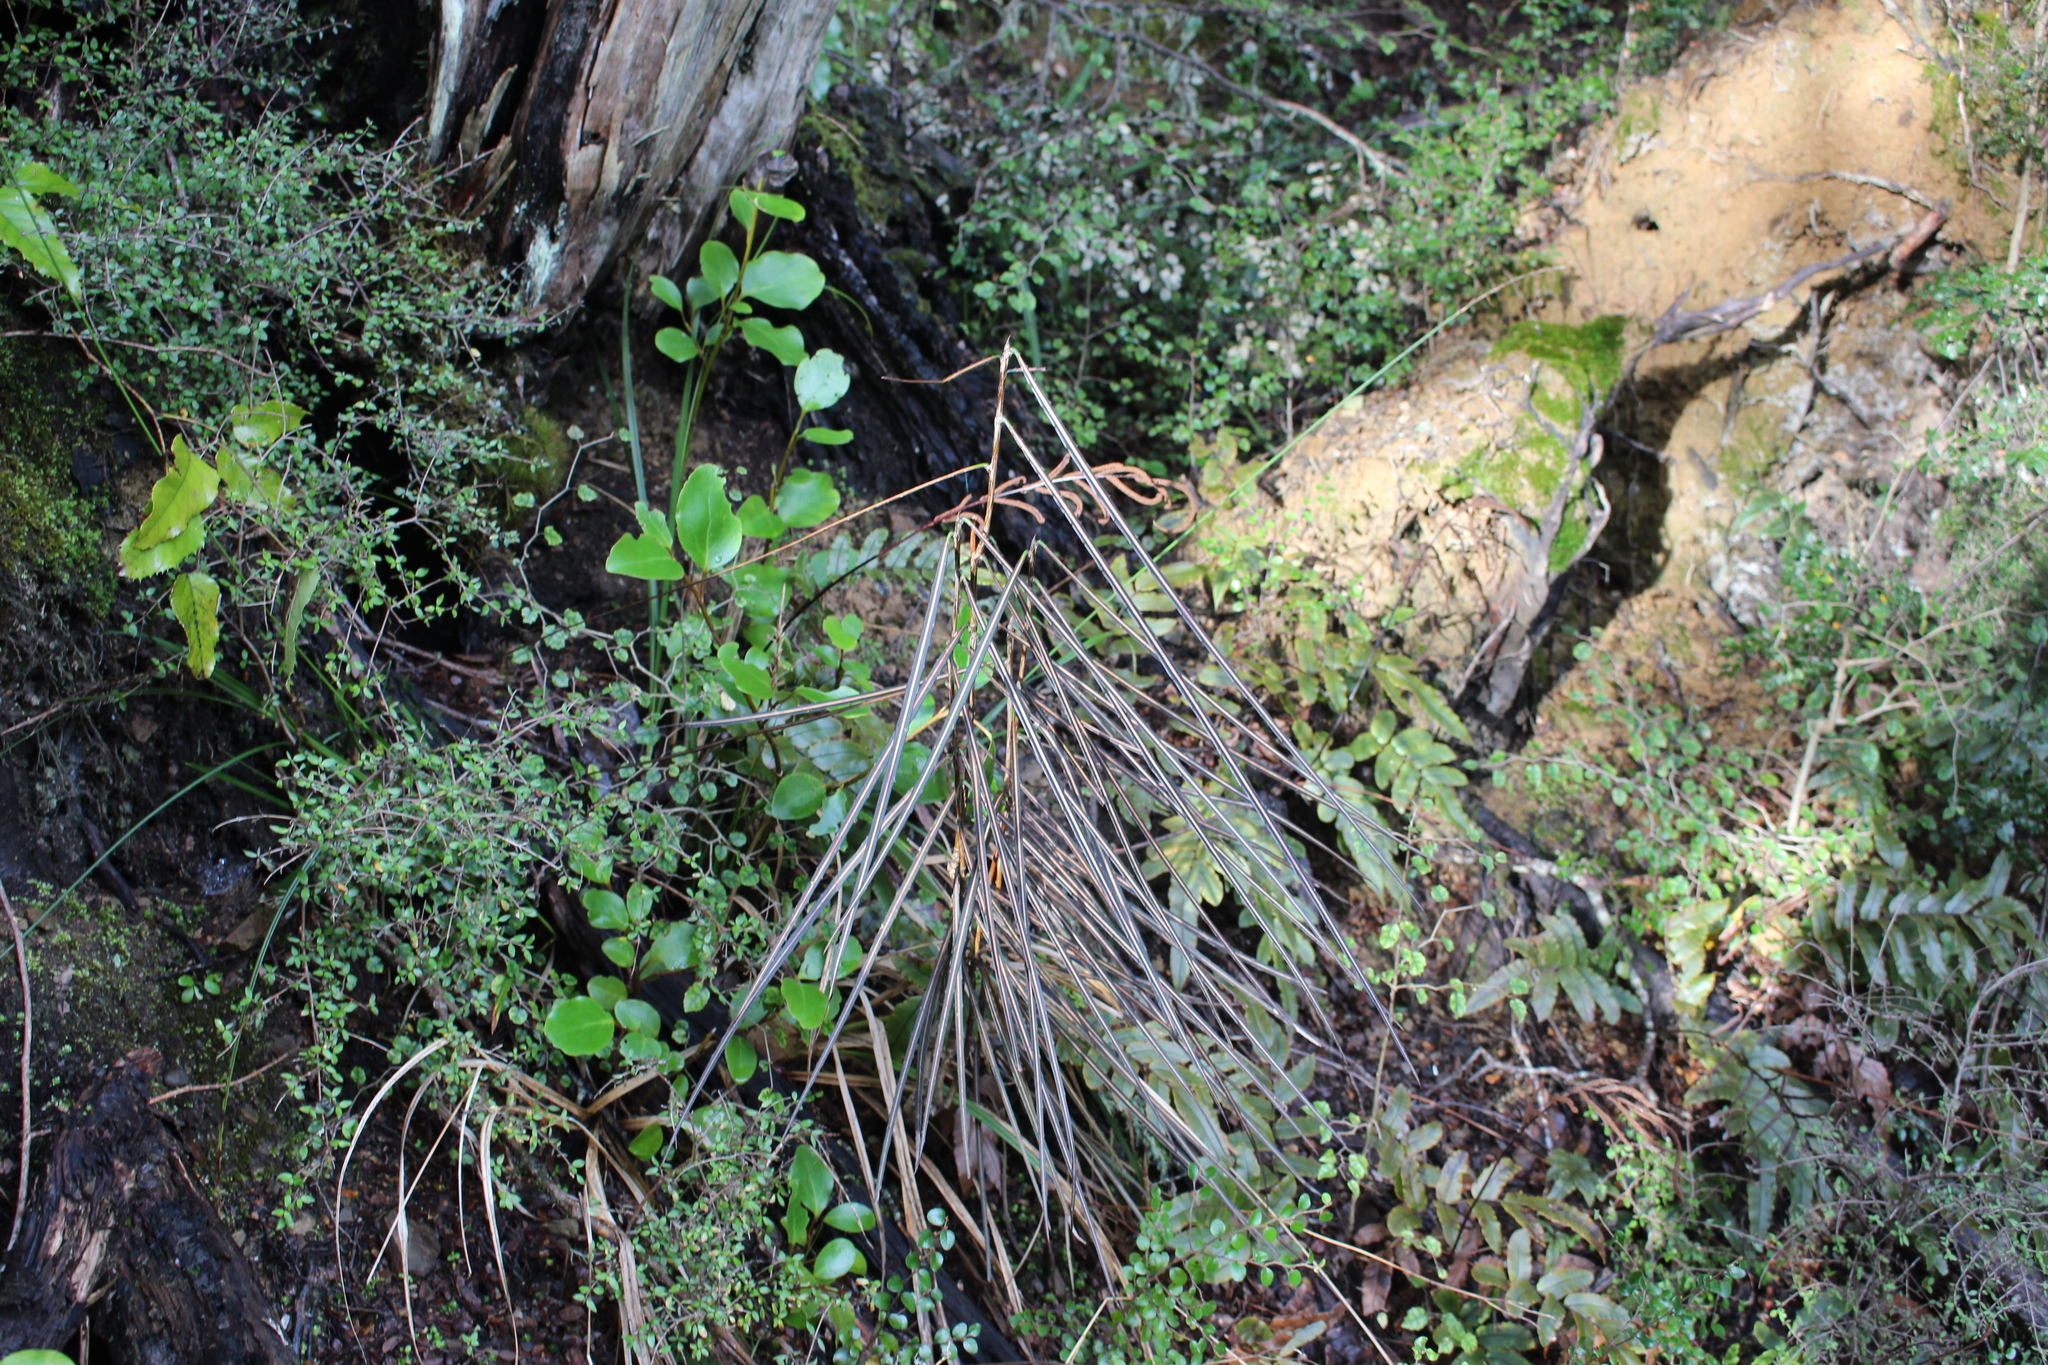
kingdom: Plantae
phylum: Tracheophyta
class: Magnoliopsida
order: Apiales
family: Araliaceae
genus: Pseudopanax
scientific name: Pseudopanax crassifolius
